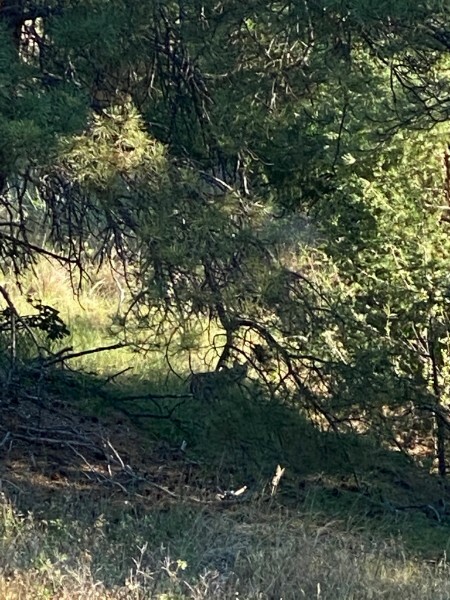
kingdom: Animalia
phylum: Chordata
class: Mammalia
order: Carnivora
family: Felidae
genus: Lynx
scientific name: Lynx rufus
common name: Bobcat
